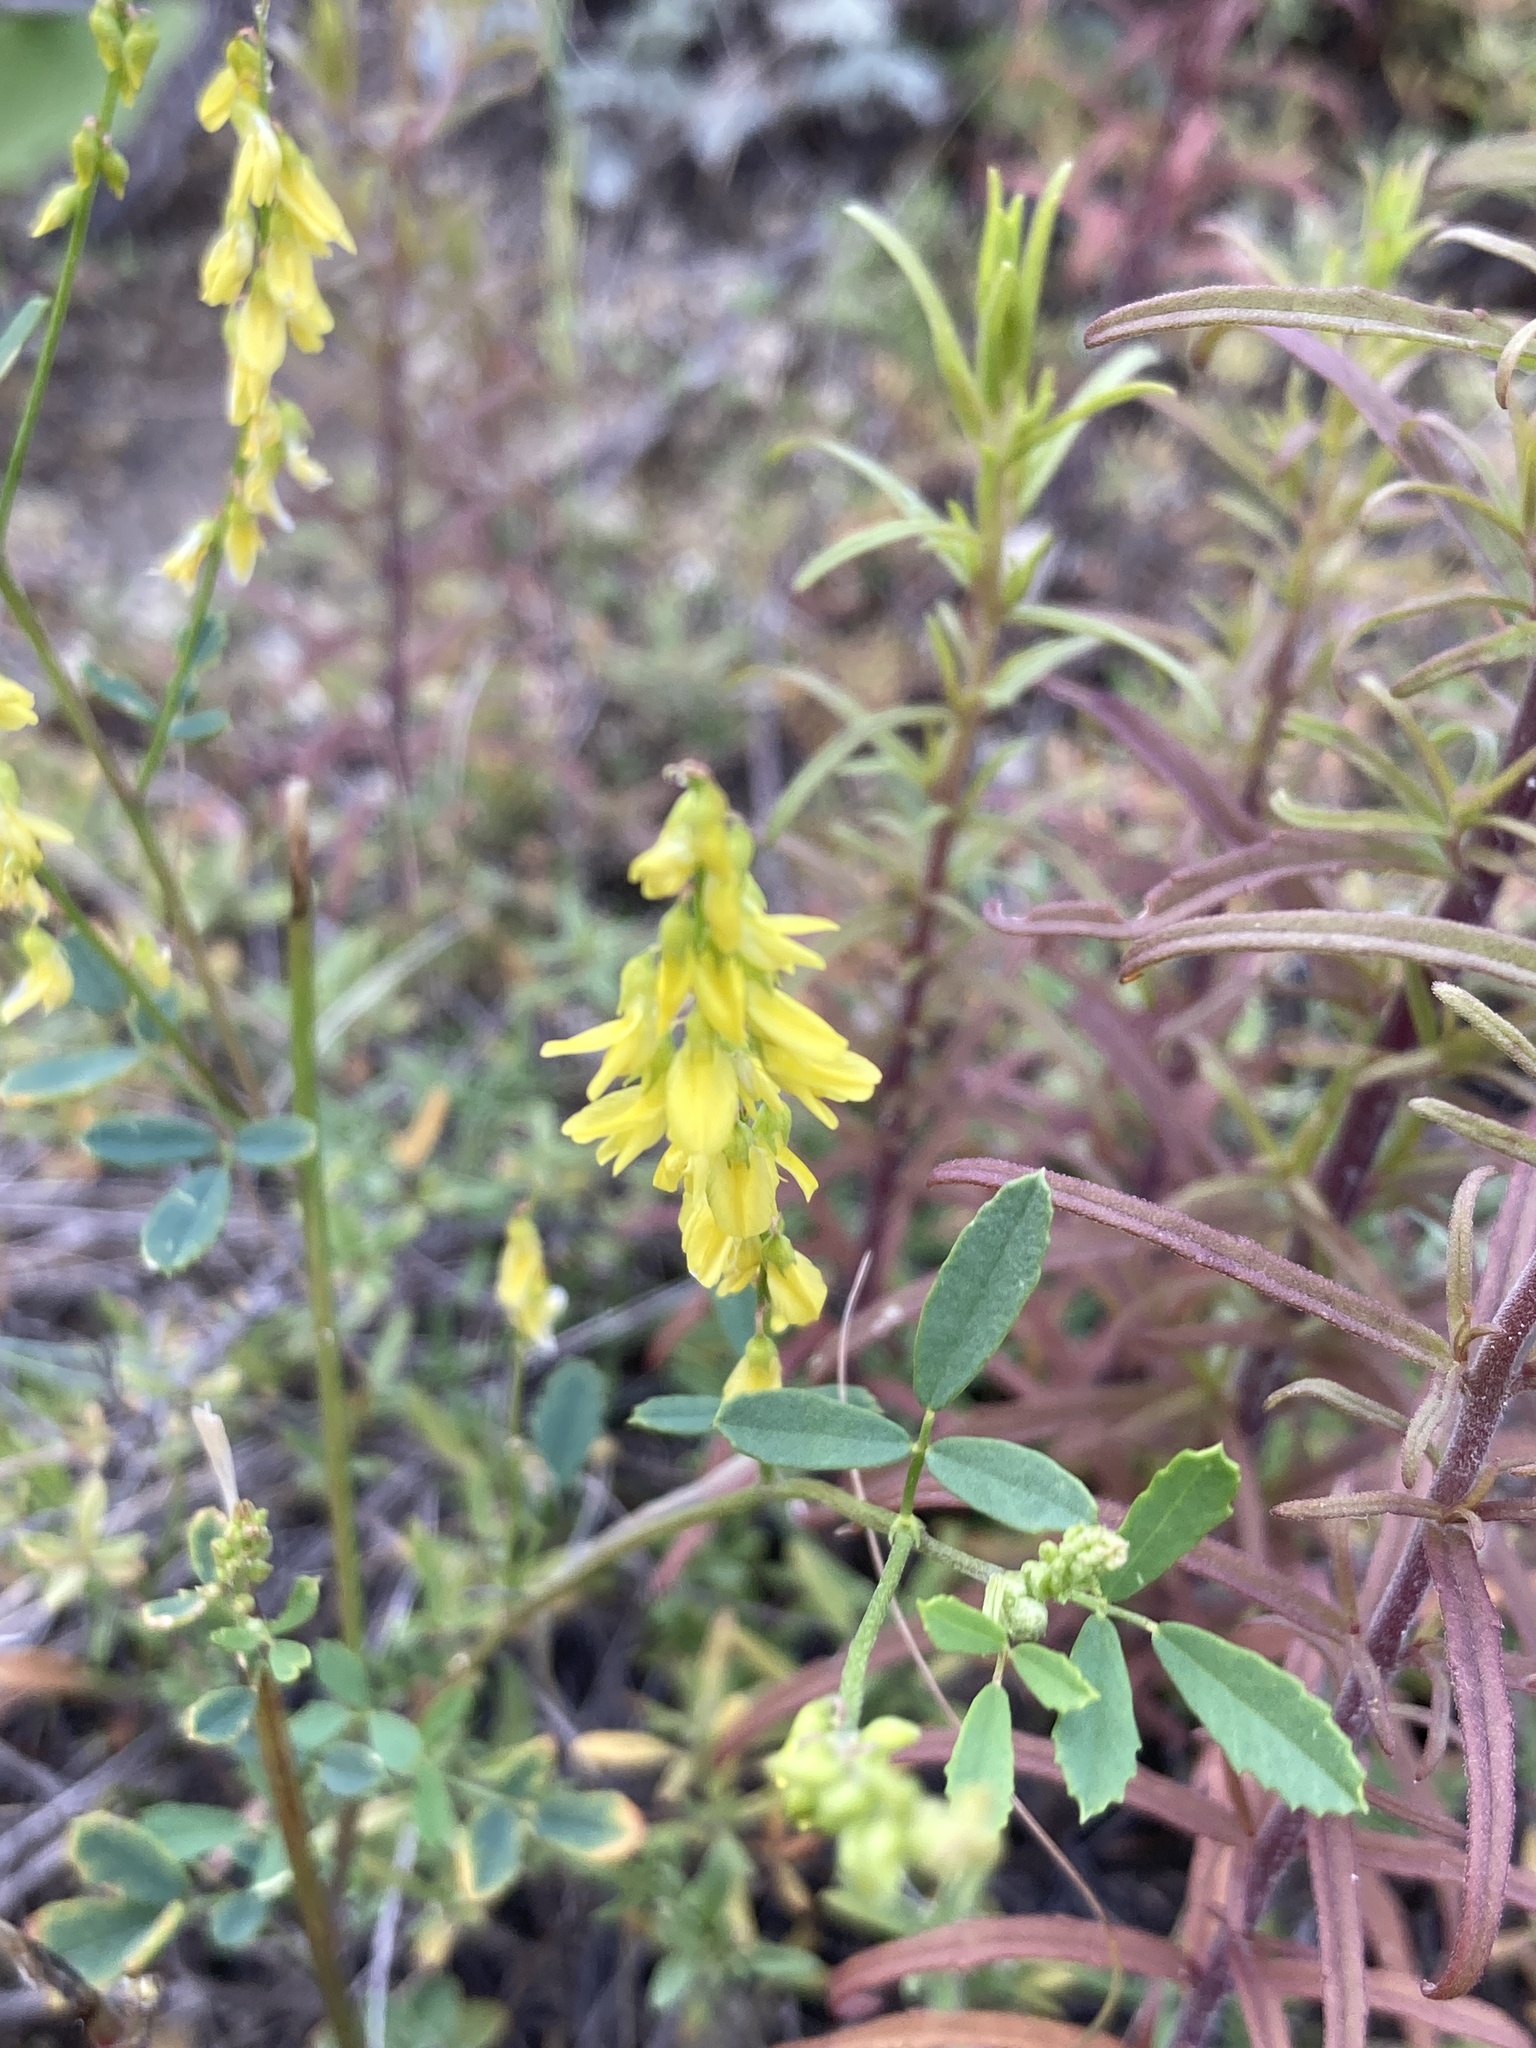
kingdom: Plantae
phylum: Tracheophyta
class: Magnoliopsida
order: Fabales
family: Fabaceae
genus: Melilotus
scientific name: Melilotus officinalis
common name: Sweetclover
